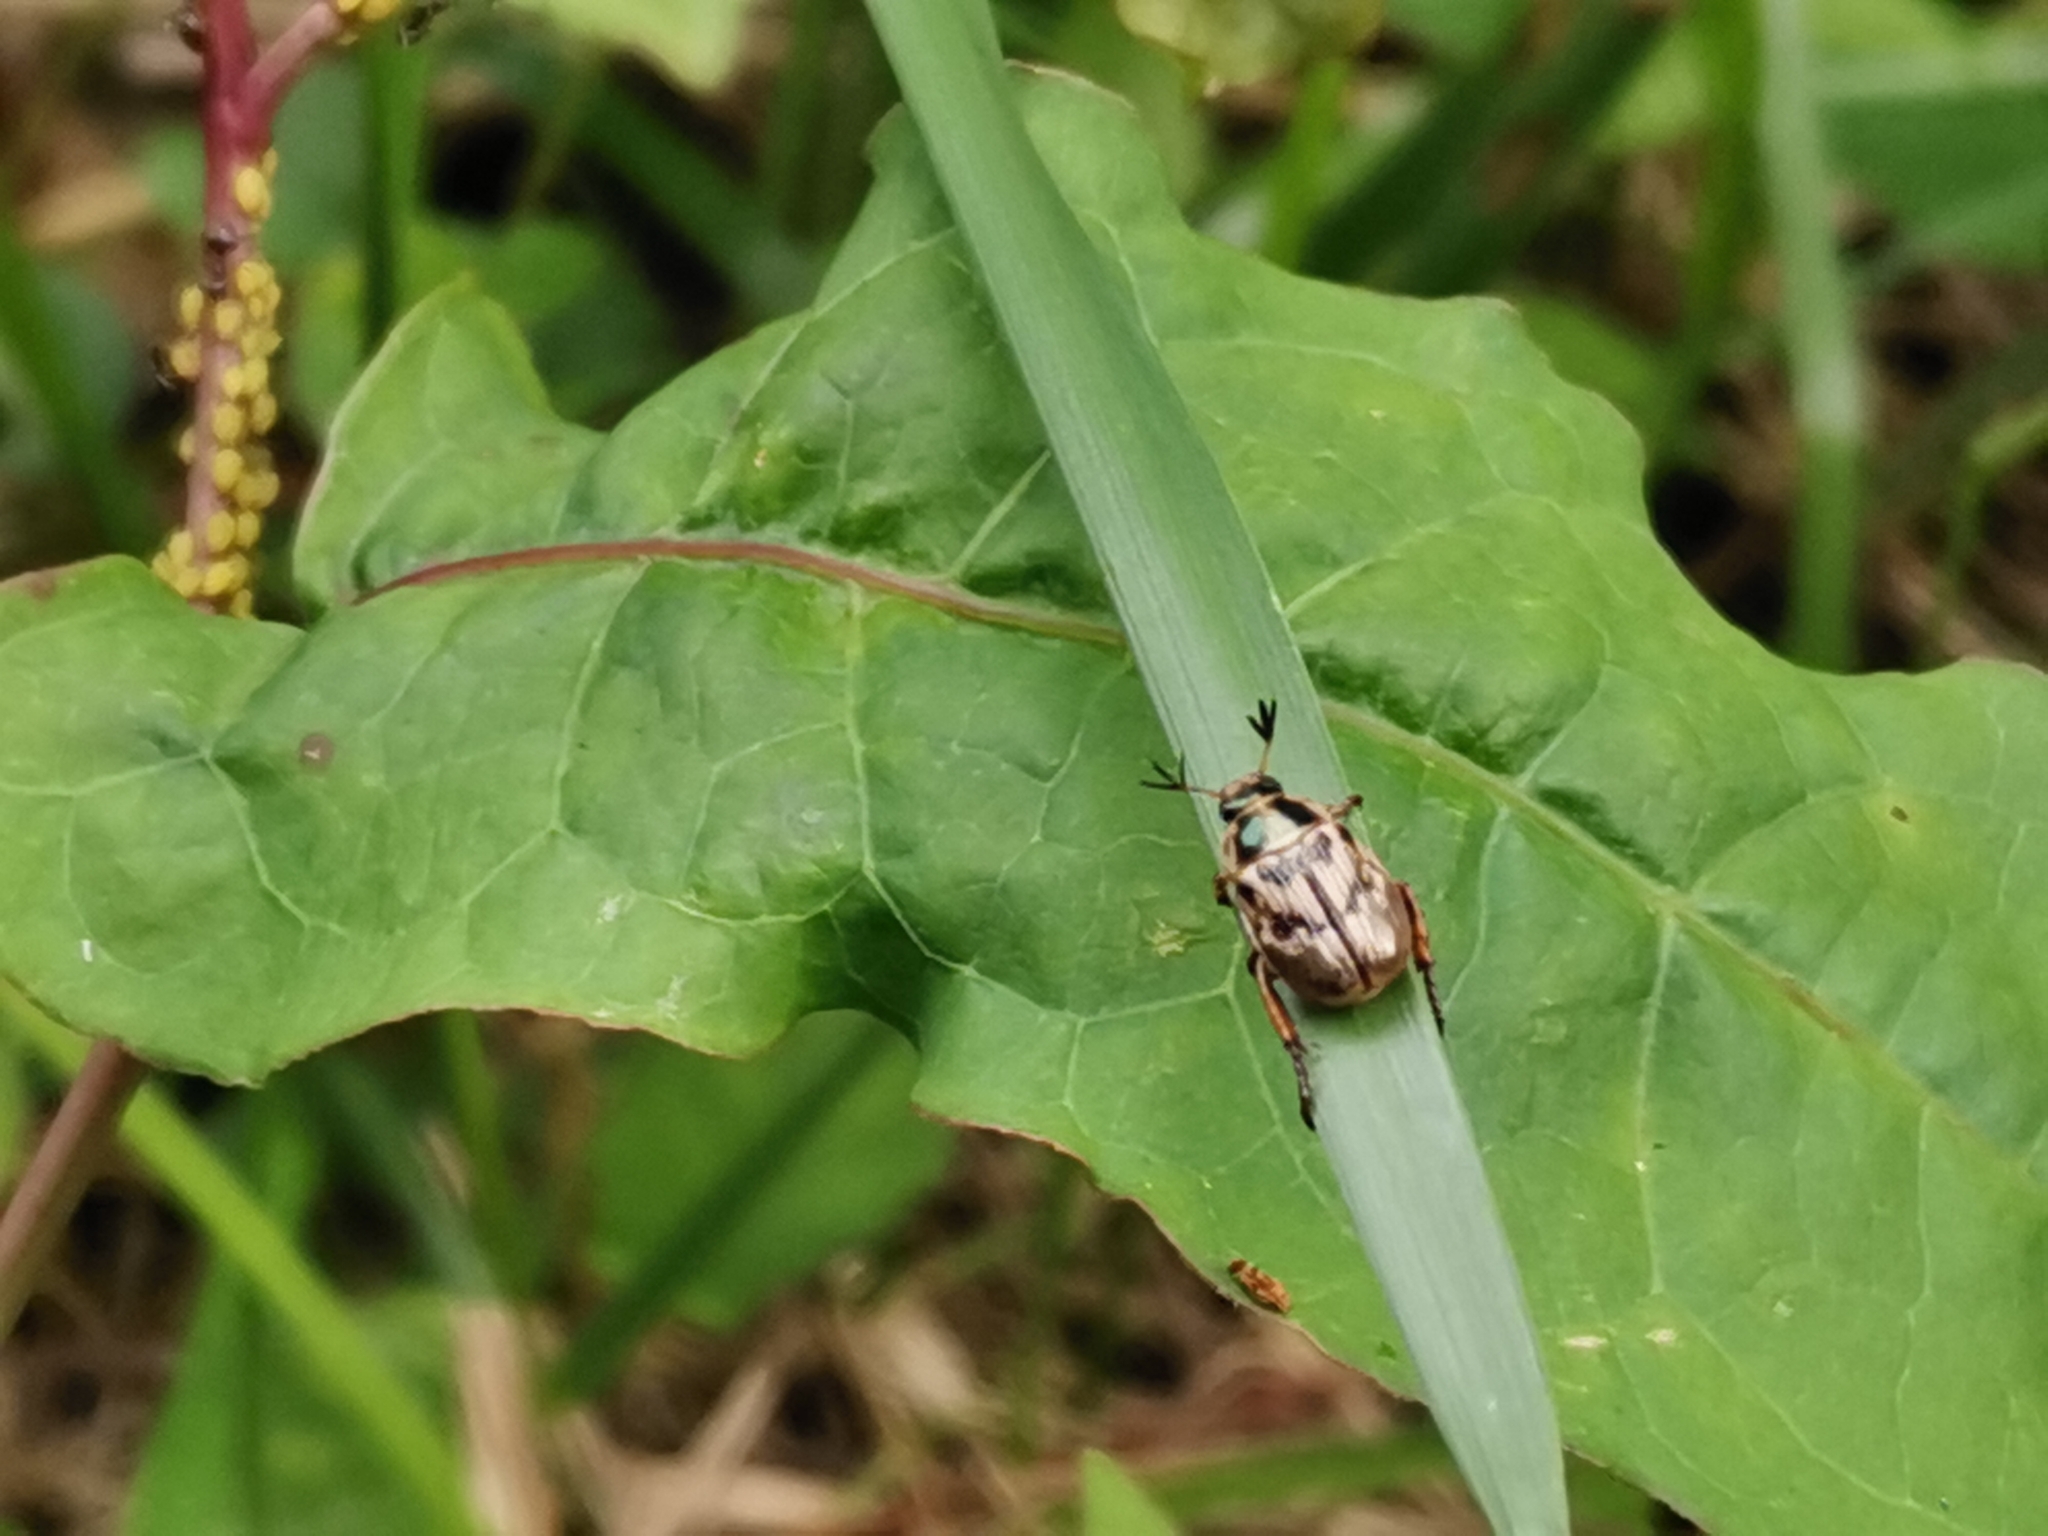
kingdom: Animalia
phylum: Arthropoda
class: Insecta
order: Coleoptera
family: Scarabaeidae
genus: Exomala
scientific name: Exomala orientalis
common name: Oriental beetle
